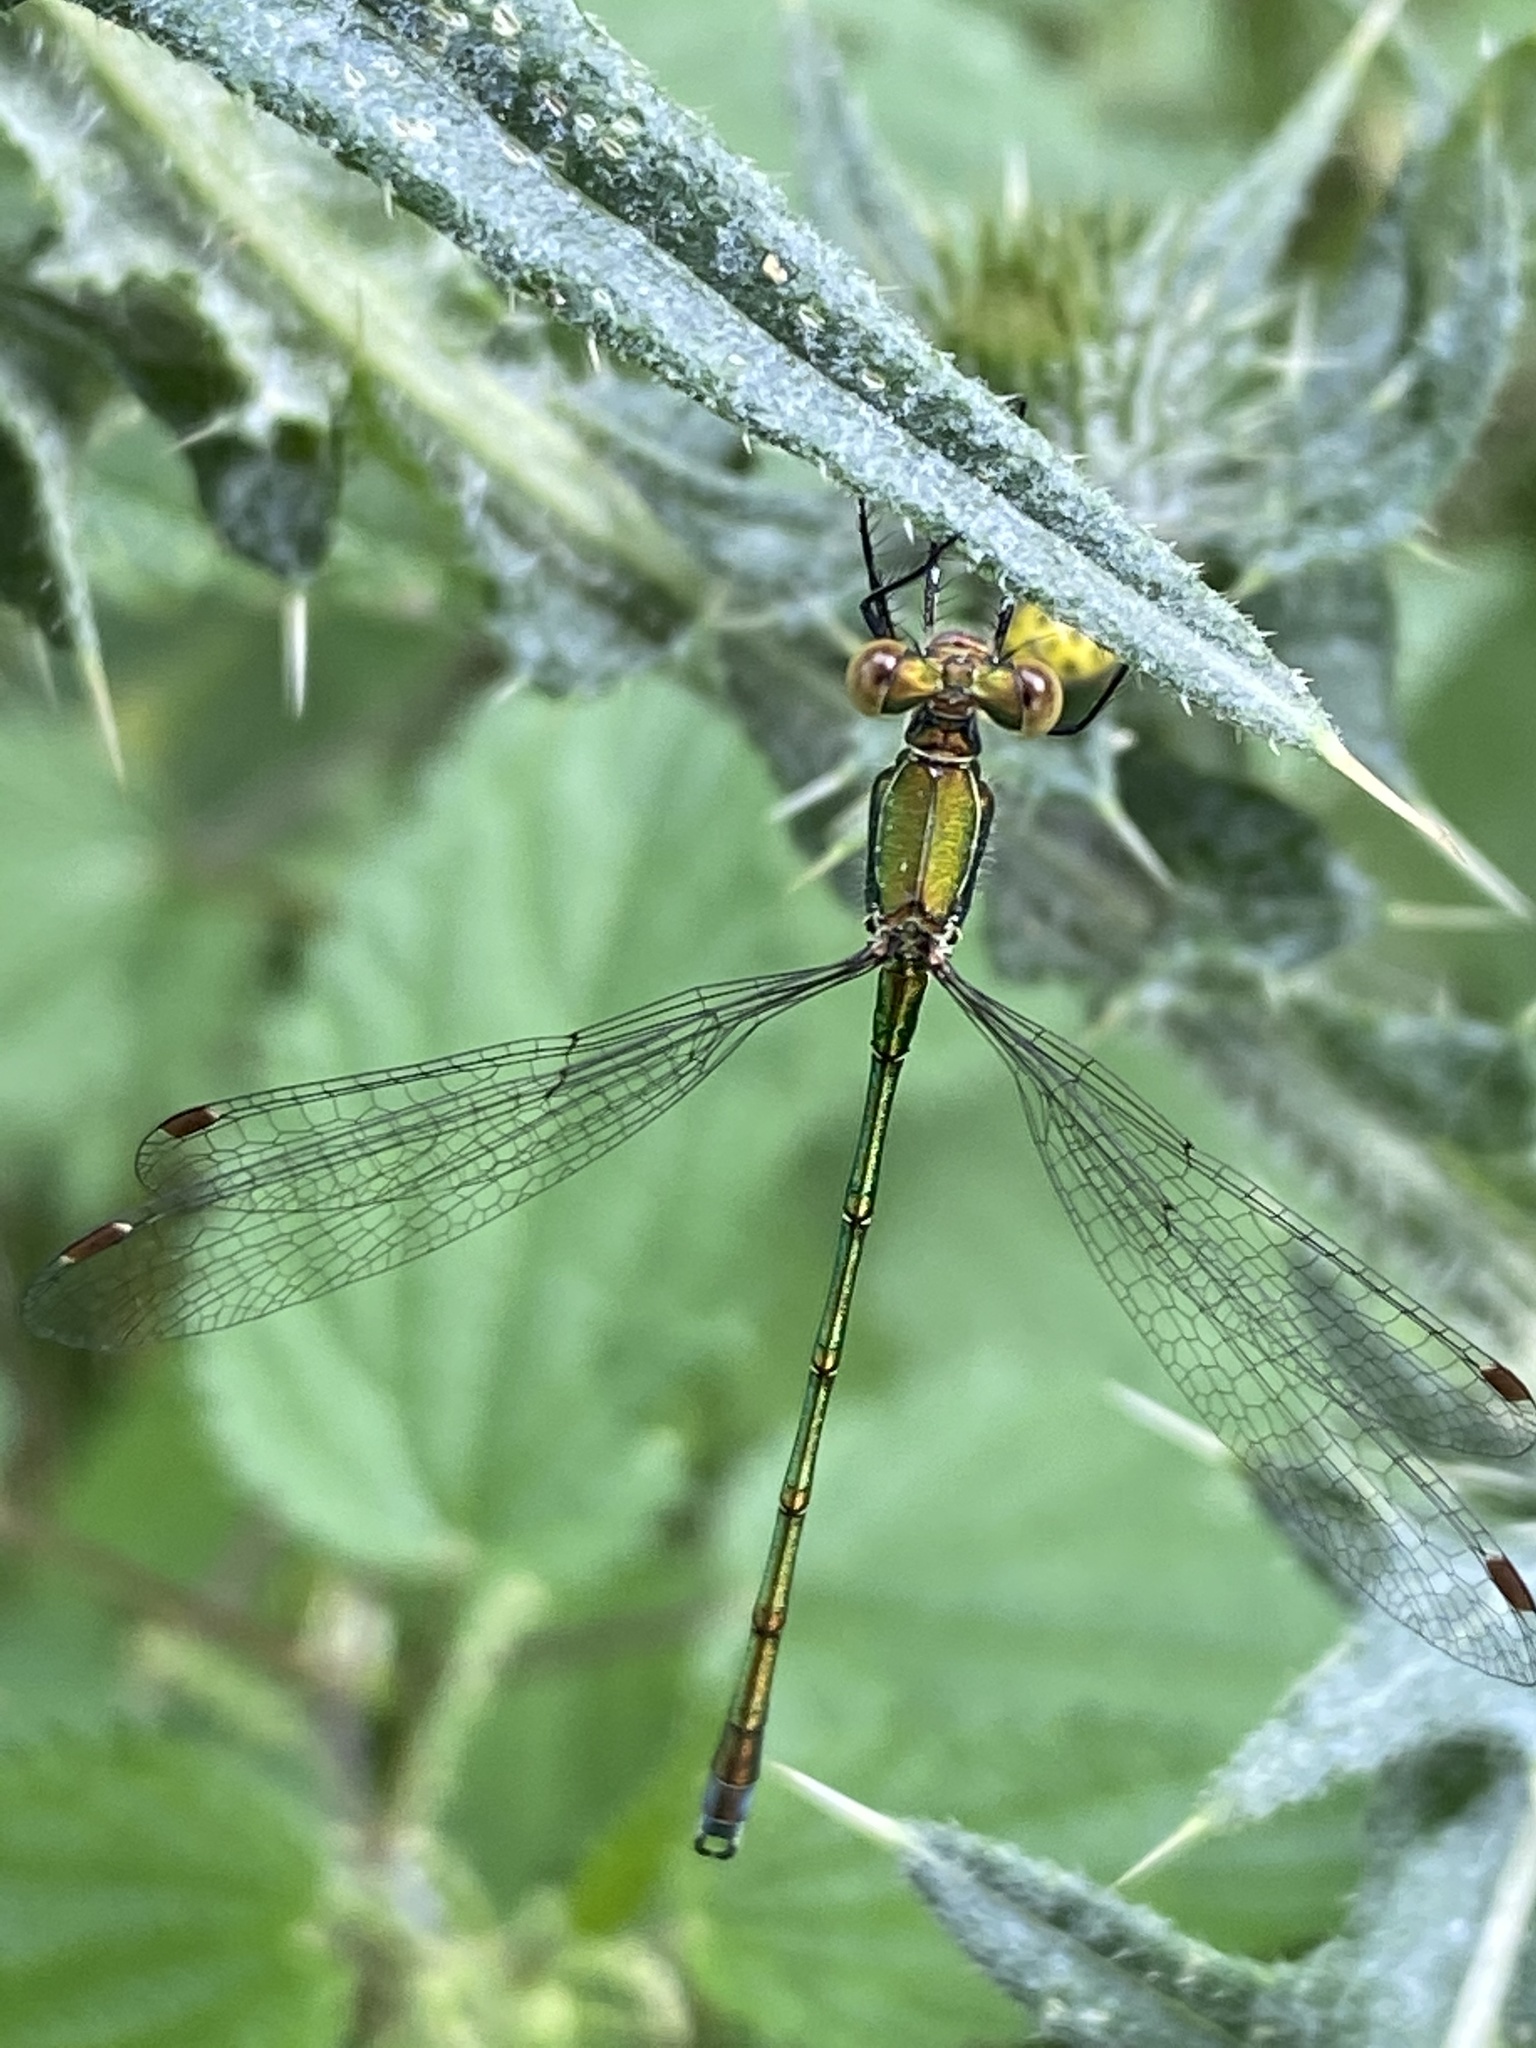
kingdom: Animalia
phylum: Arthropoda
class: Insecta
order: Odonata
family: Lestidae
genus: Lestes
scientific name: Lestes virens
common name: Small emerald spreadwing
